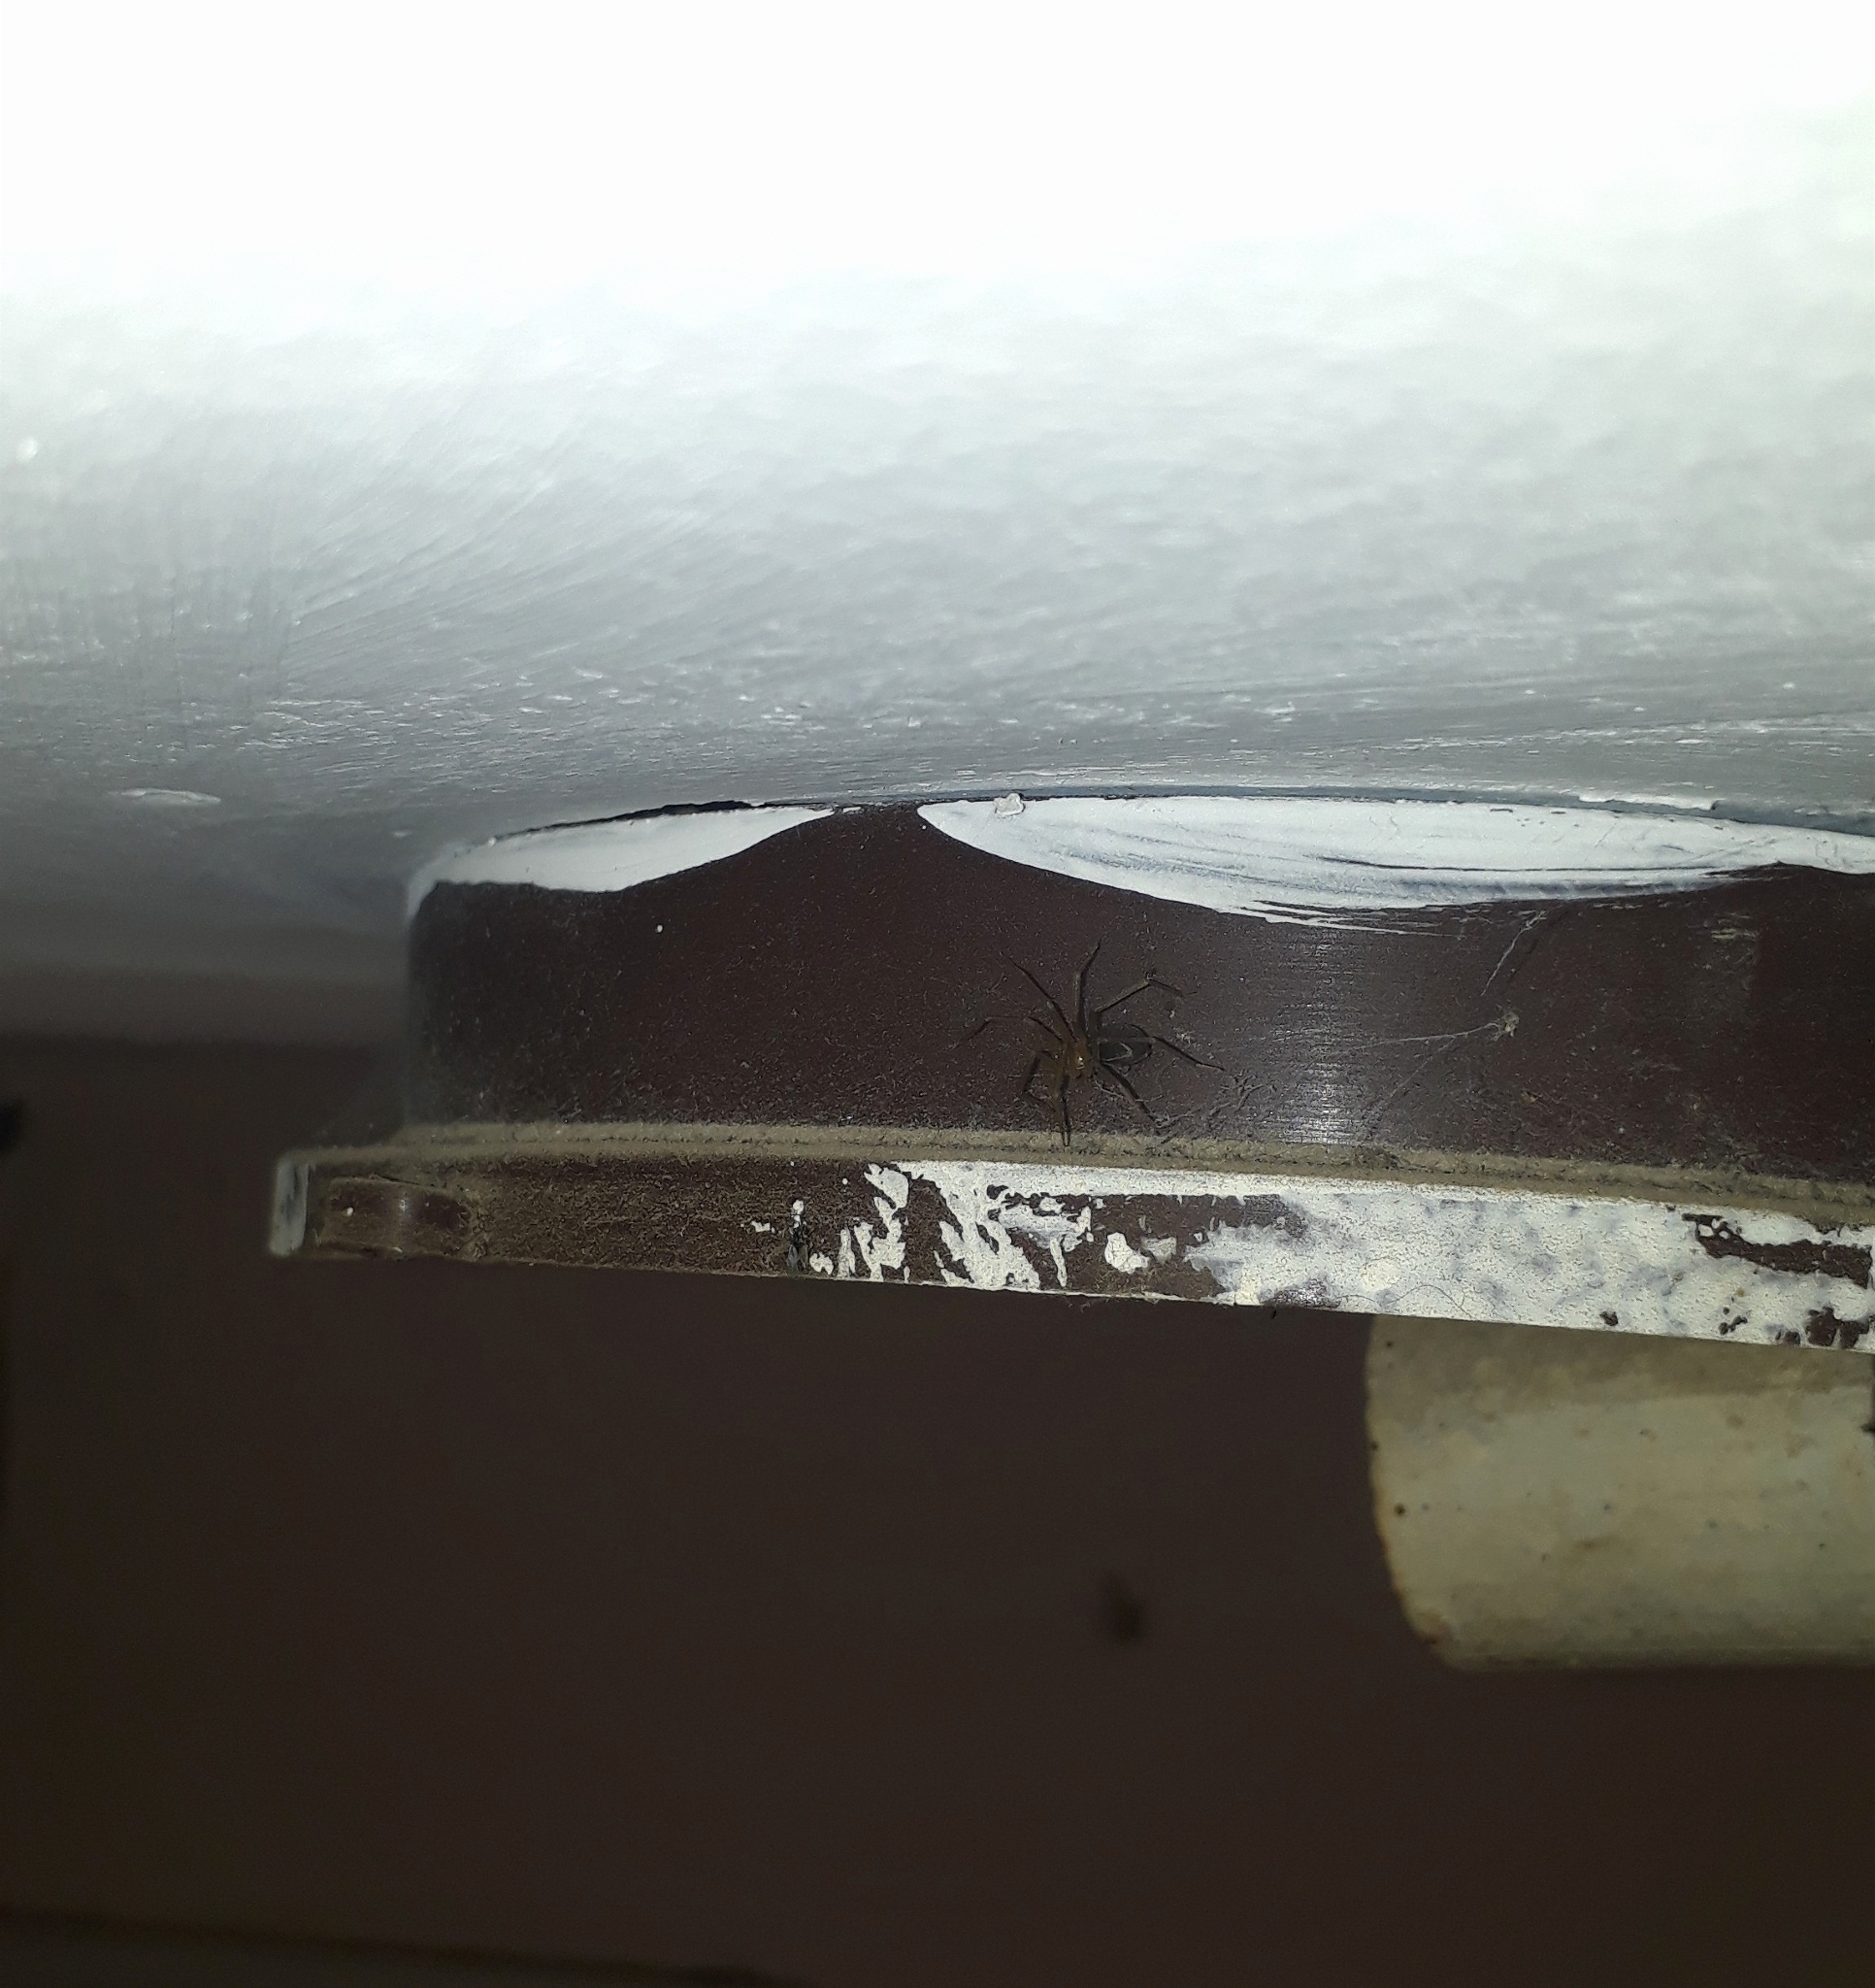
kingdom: Animalia
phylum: Arthropoda
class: Arachnida
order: Araneae
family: Sicariidae
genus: Loxosceles
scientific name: Loxosceles laeta
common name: Chilean recluse spider
